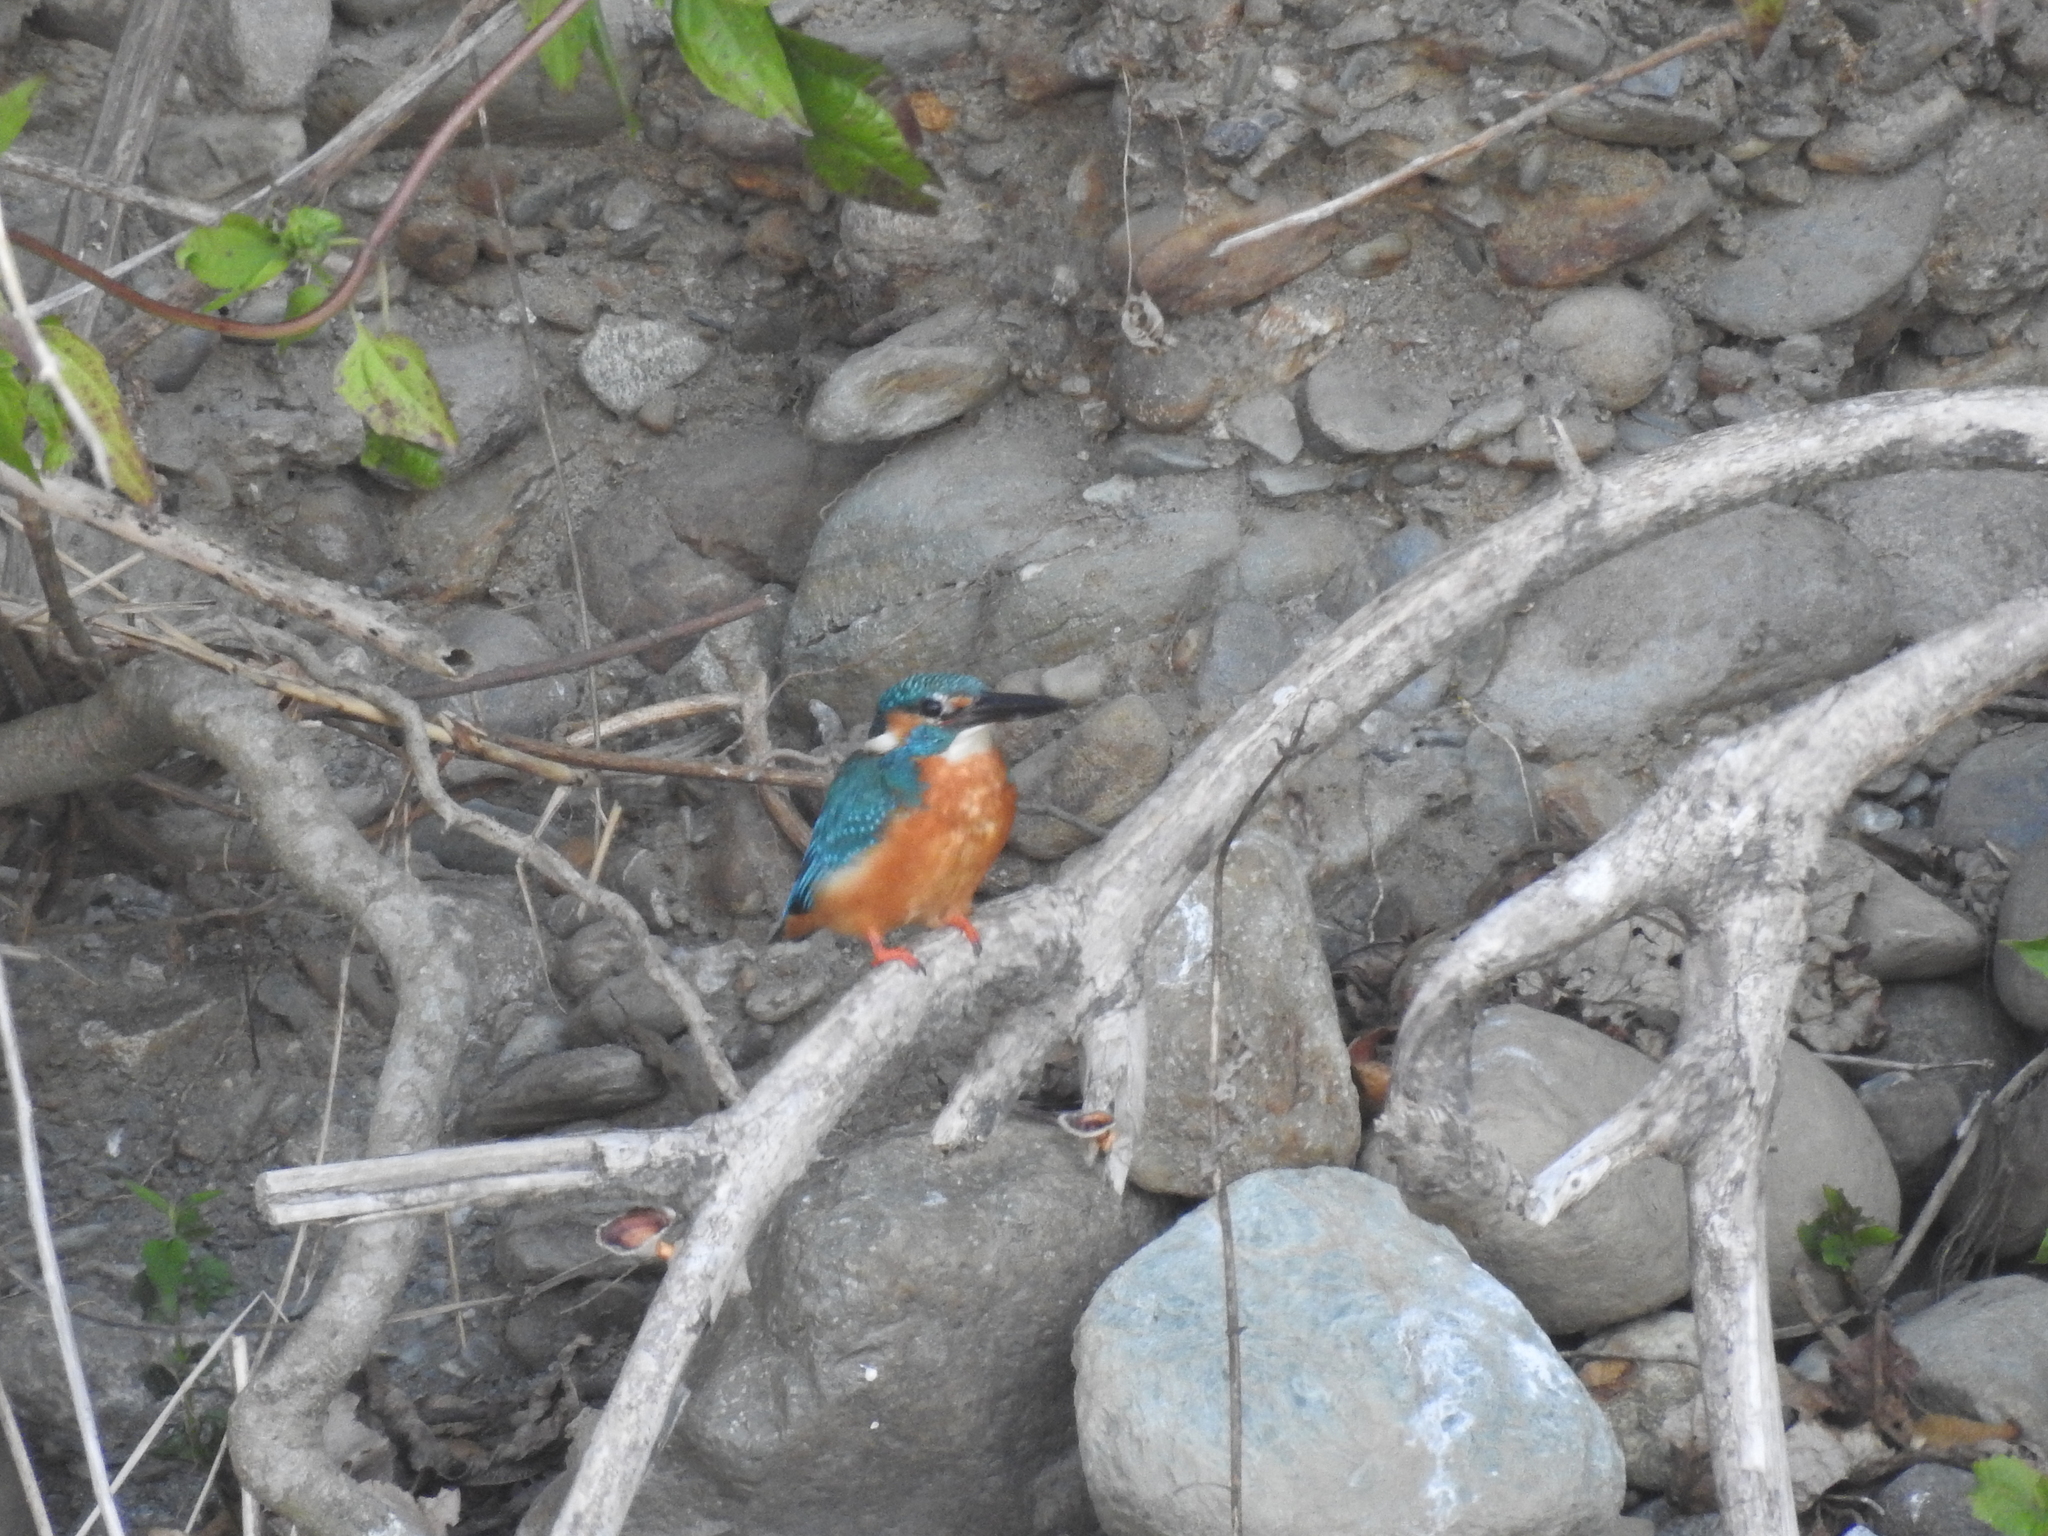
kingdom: Animalia
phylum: Chordata
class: Aves
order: Coraciiformes
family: Alcedinidae
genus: Alcedo
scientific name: Alcedo atthis
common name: Common kingfisher
